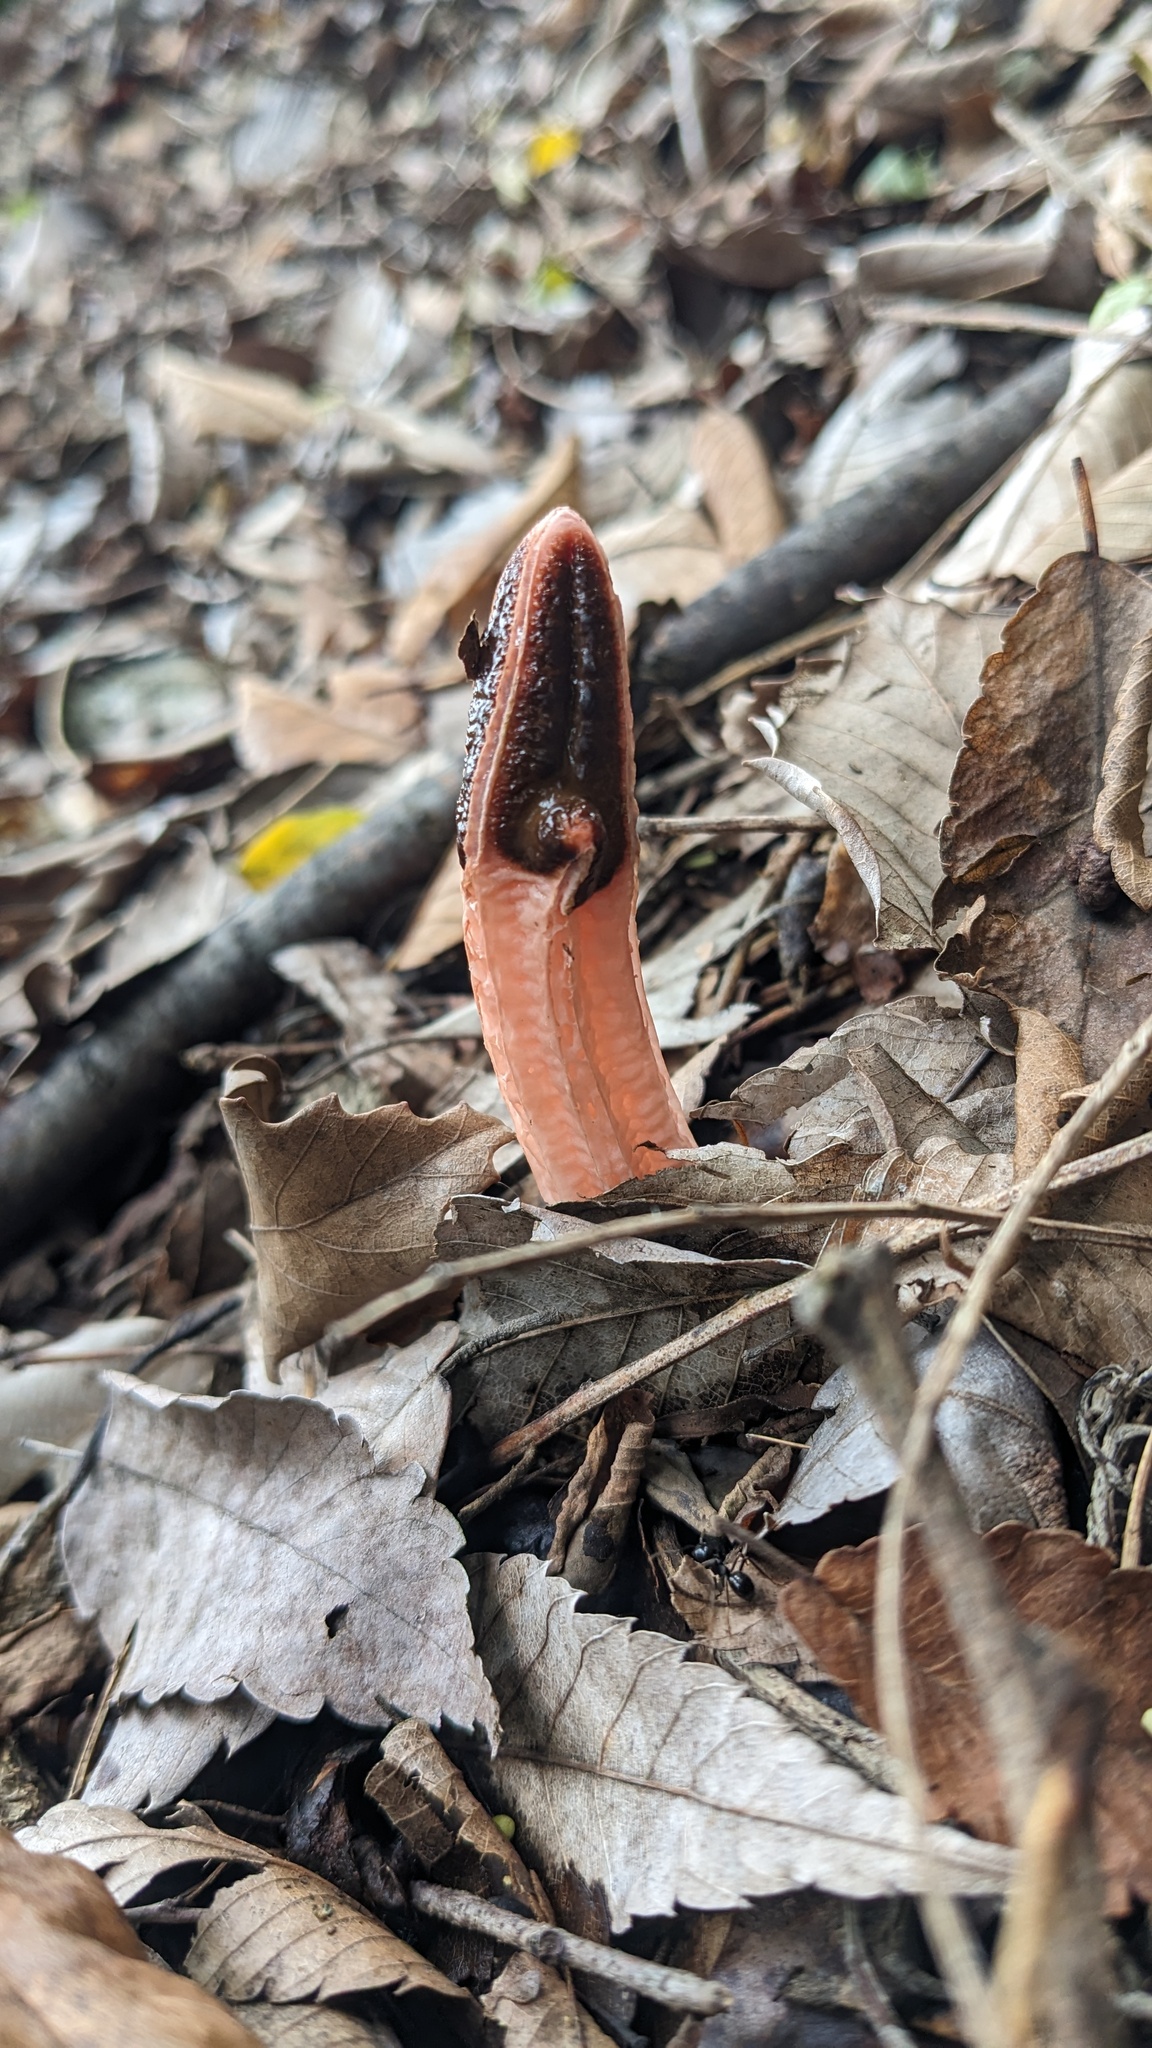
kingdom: Fungi
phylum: Basidiomycota
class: Agaricomycetes
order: Phallales
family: Phallaceae
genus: Lysurus
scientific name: Lysurus mokusin
